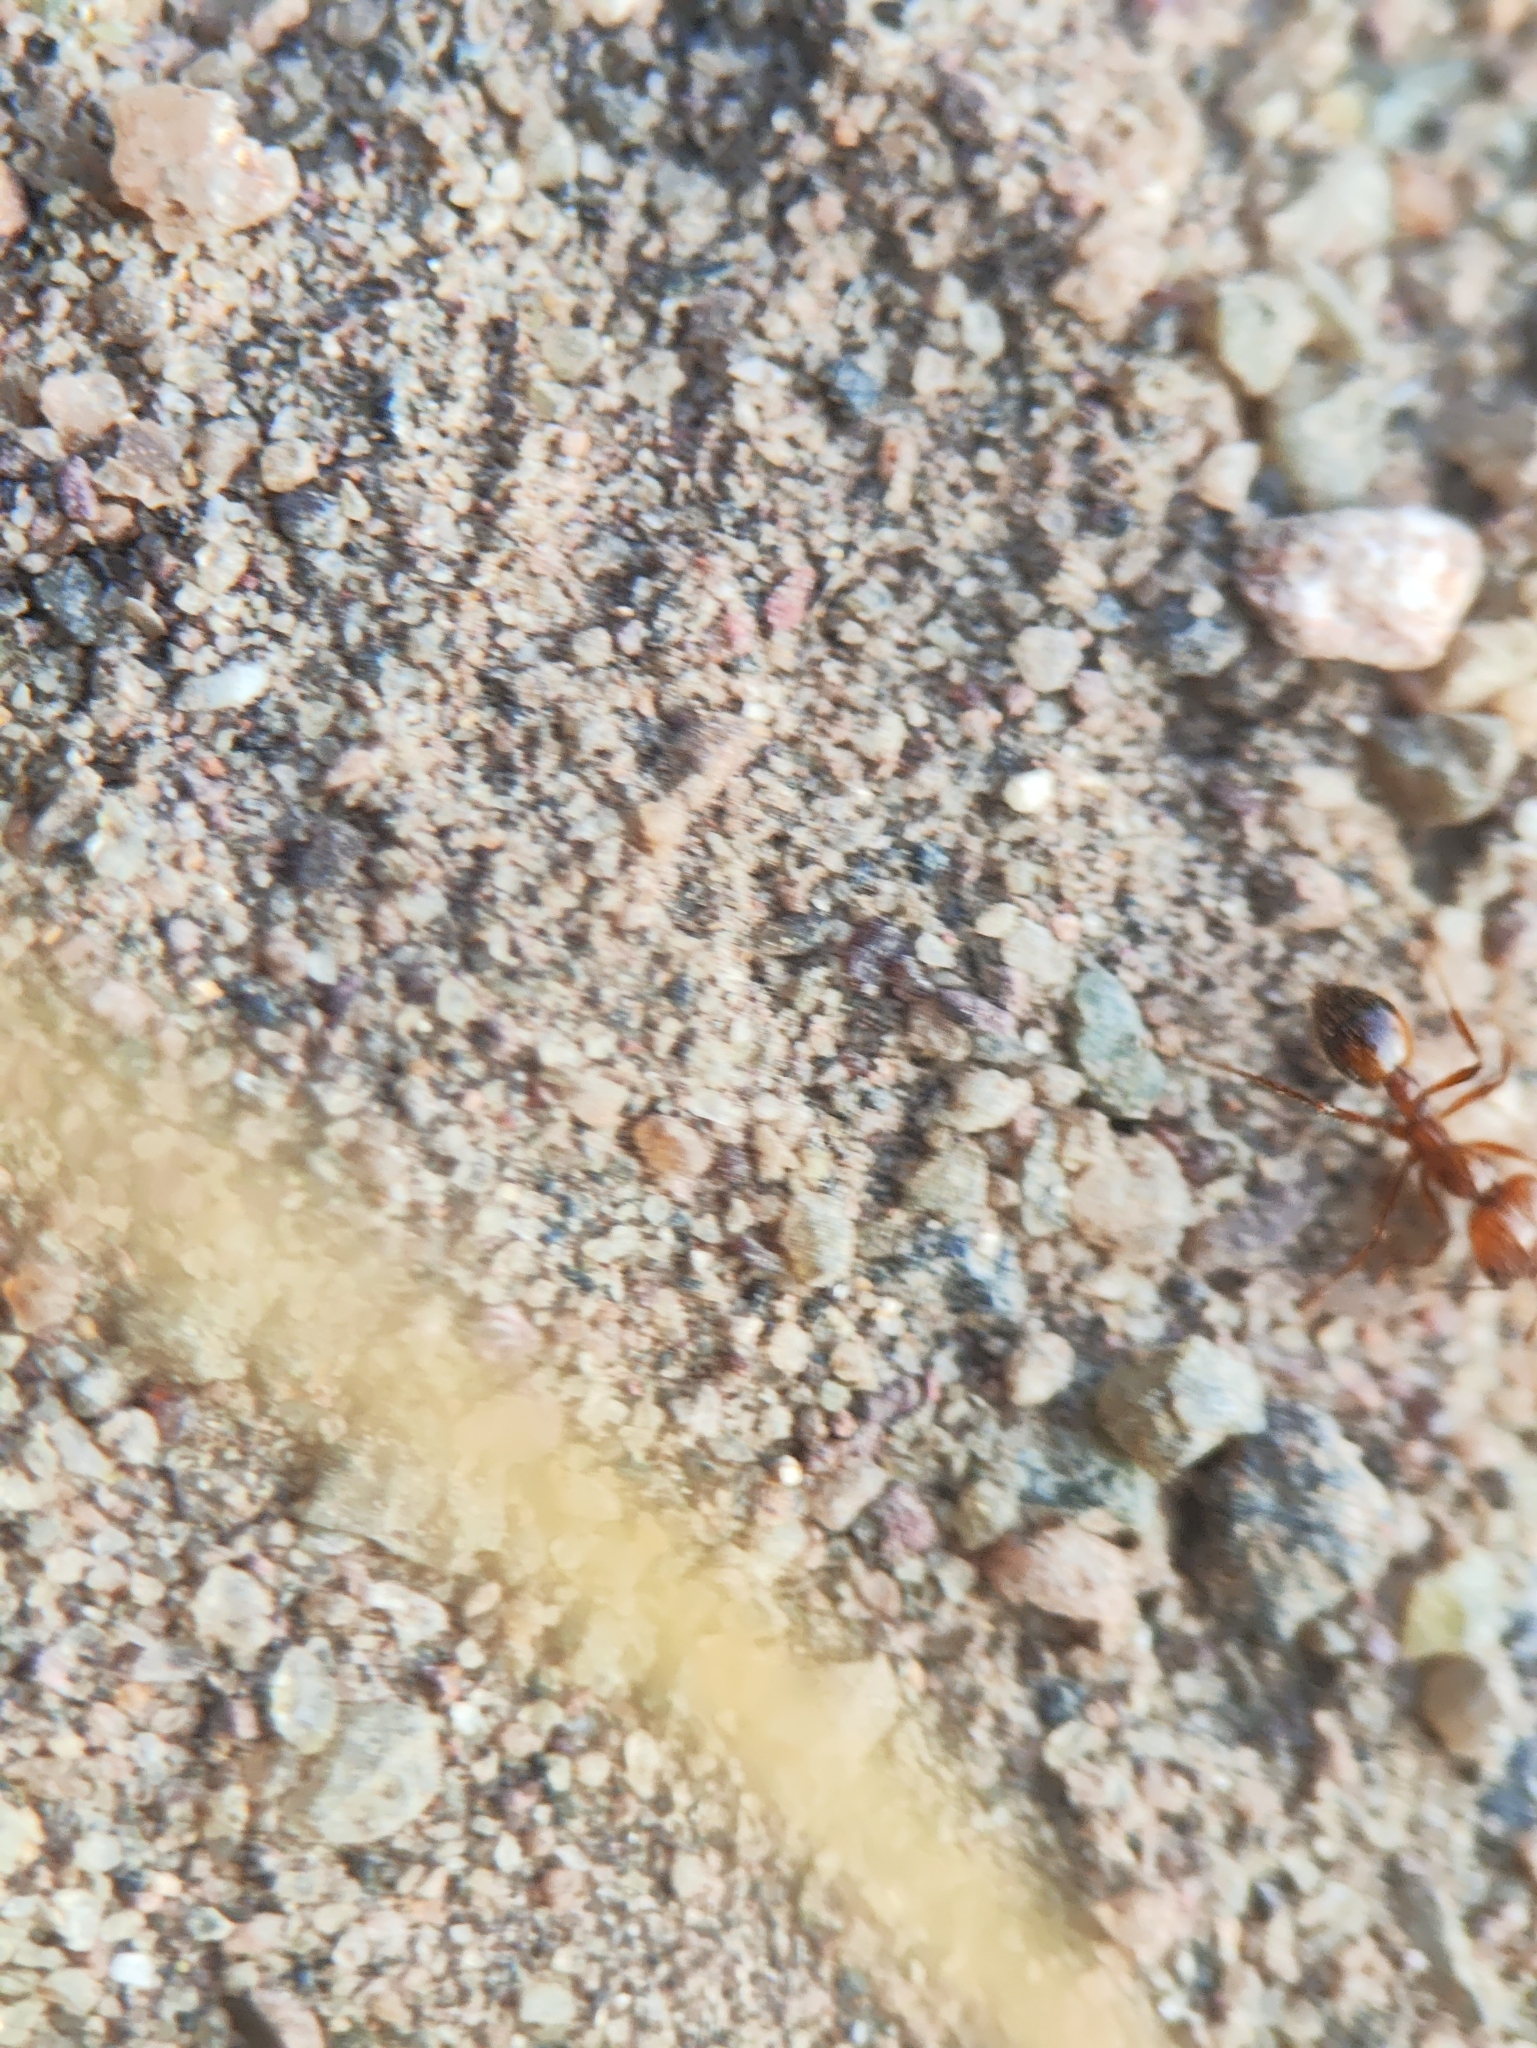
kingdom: Animalia
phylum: Arthropoda
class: Insecta
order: Hymenoptera
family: Formicidae
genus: Solenopsis
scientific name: Solenopsis geminata
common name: Tropical fire ant
